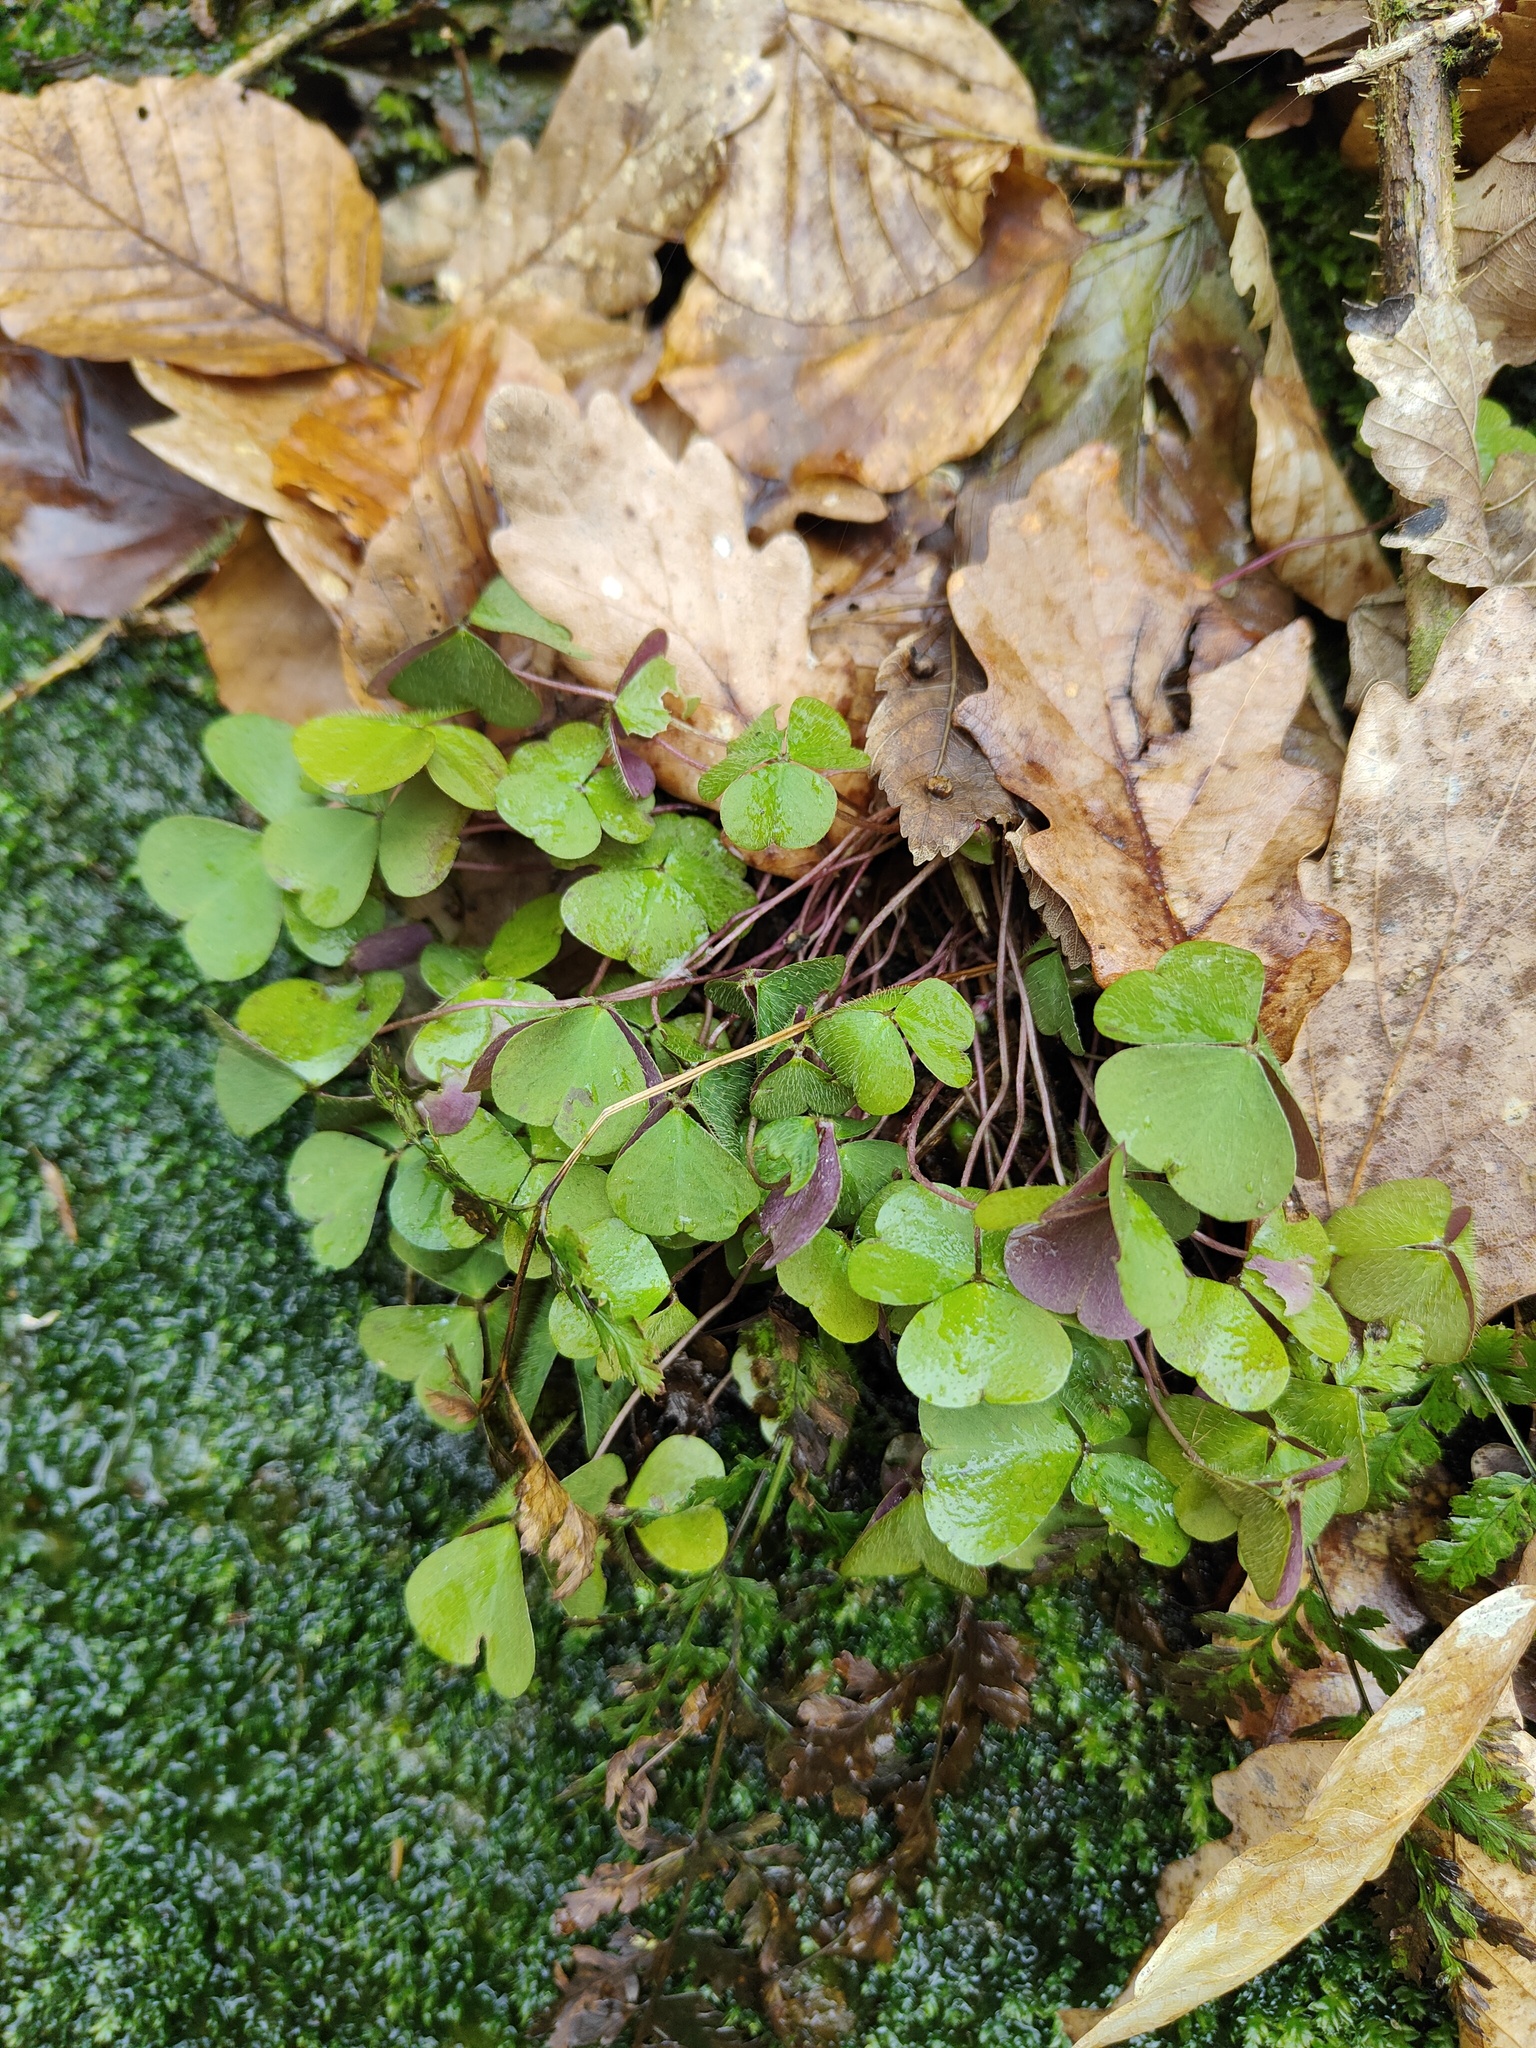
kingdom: Plantae
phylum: Tracheophyta
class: Magnoliopsida
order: Oxalidales
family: Oxalidaceae
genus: Oxalis
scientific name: Oxalis acetosella
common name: Wood-sorrel
